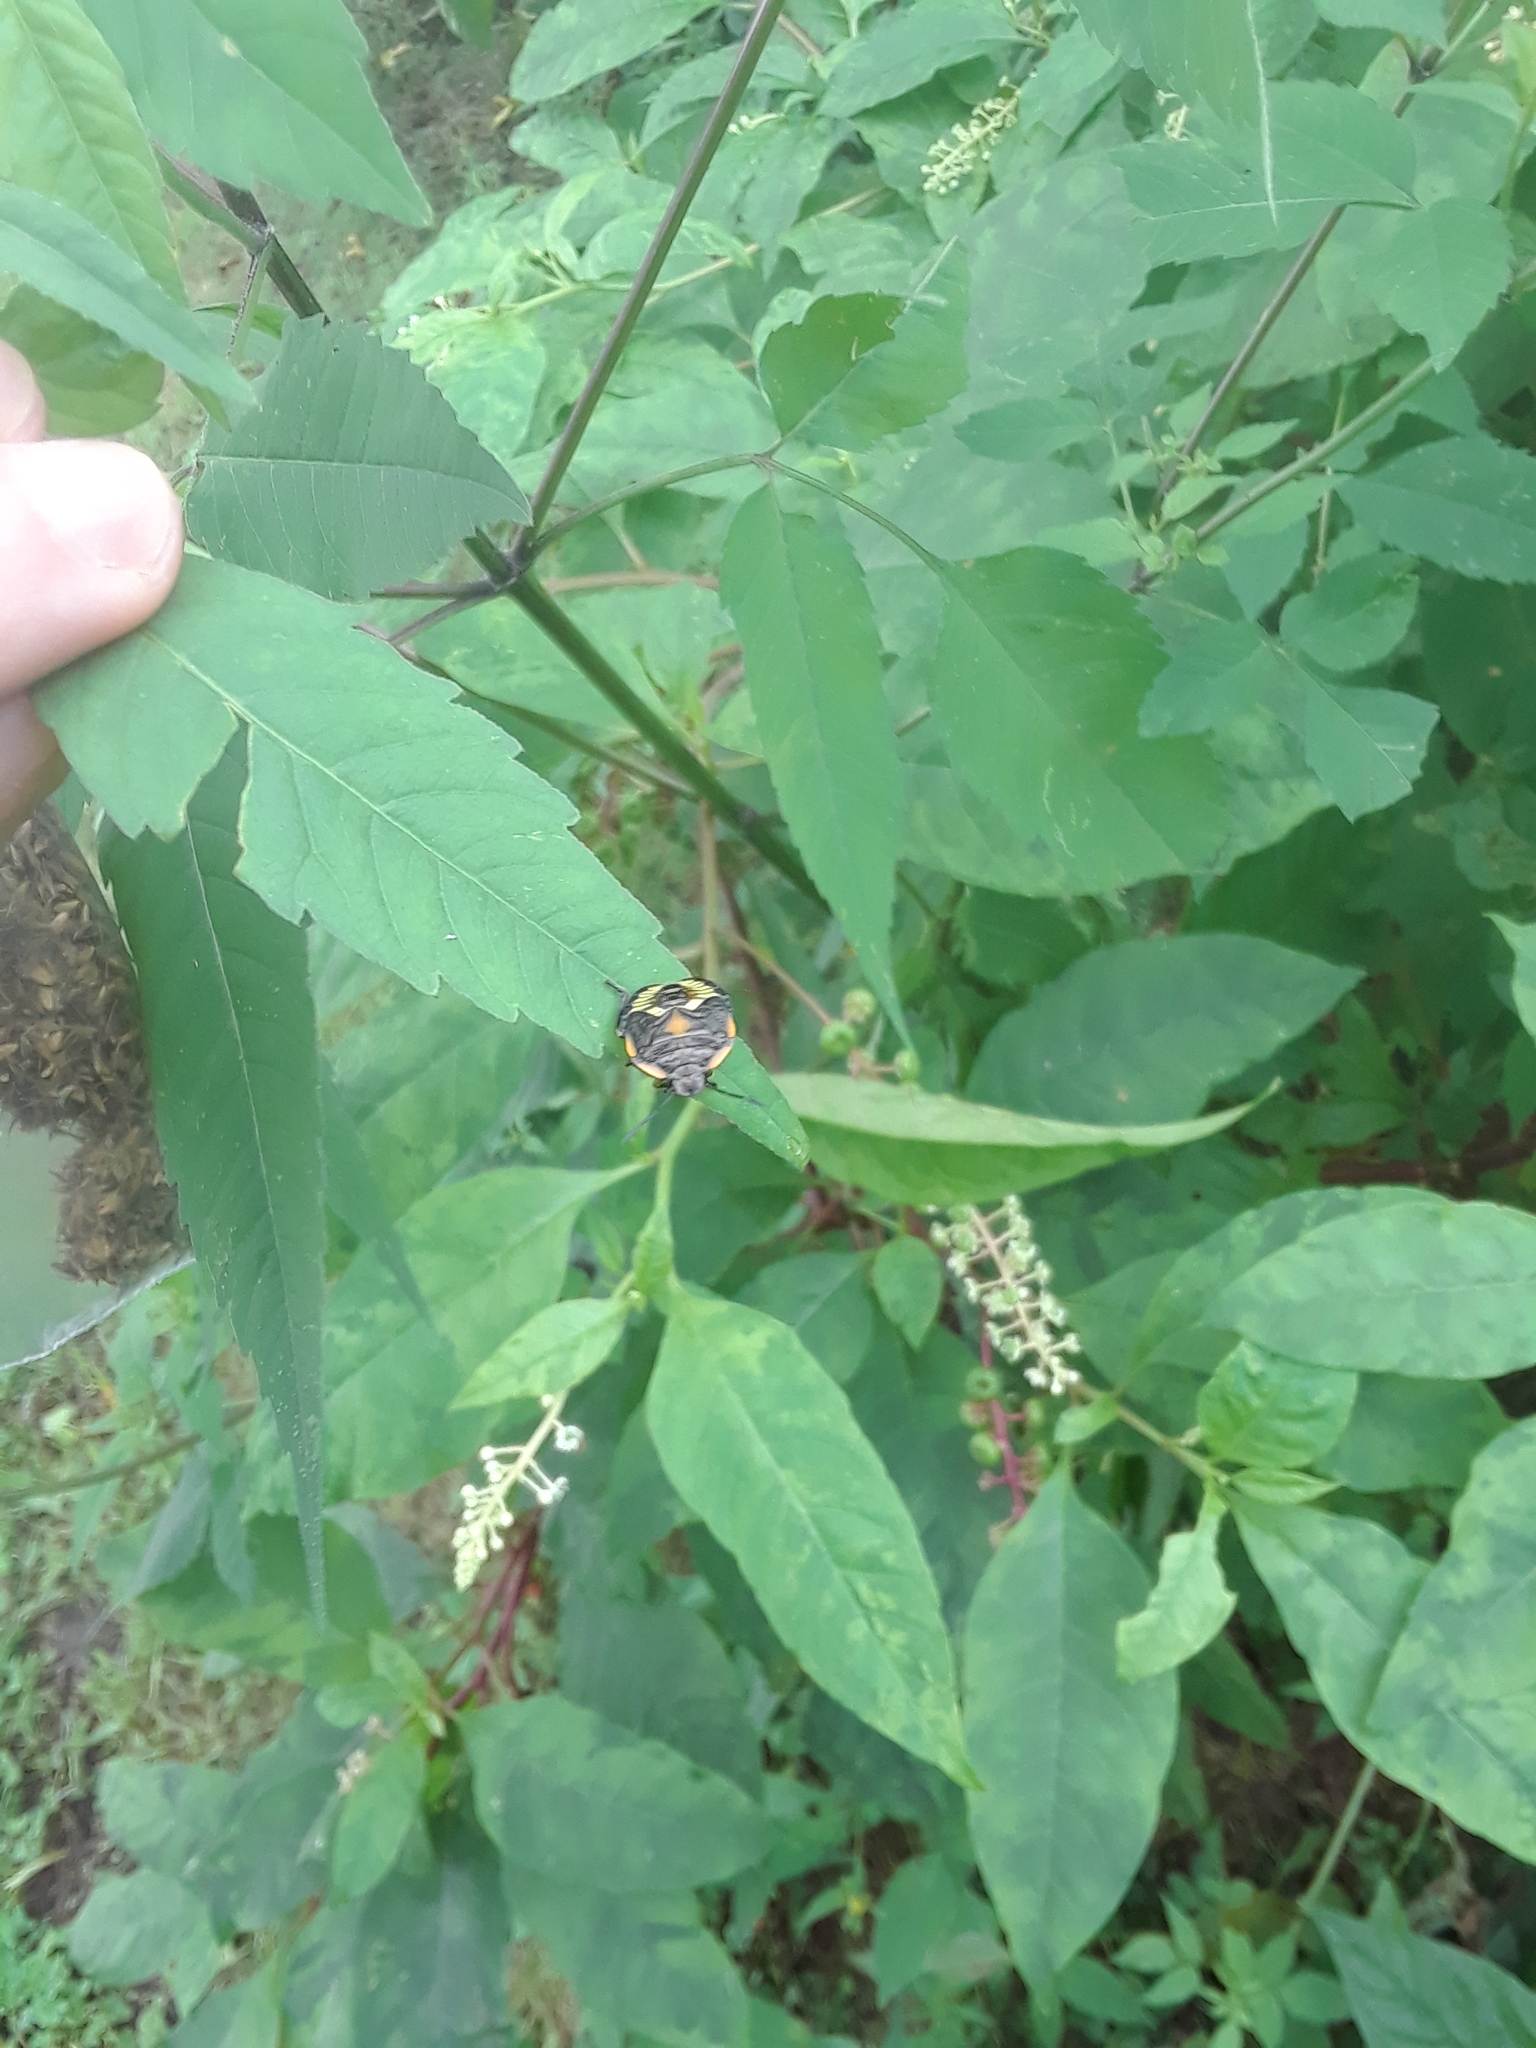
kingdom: Animalia
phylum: Arthropoda
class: Insecta
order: Hemiptera
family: Pentatomidae
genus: Chinavia
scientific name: Chinavia hilaris
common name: Green stink bug
